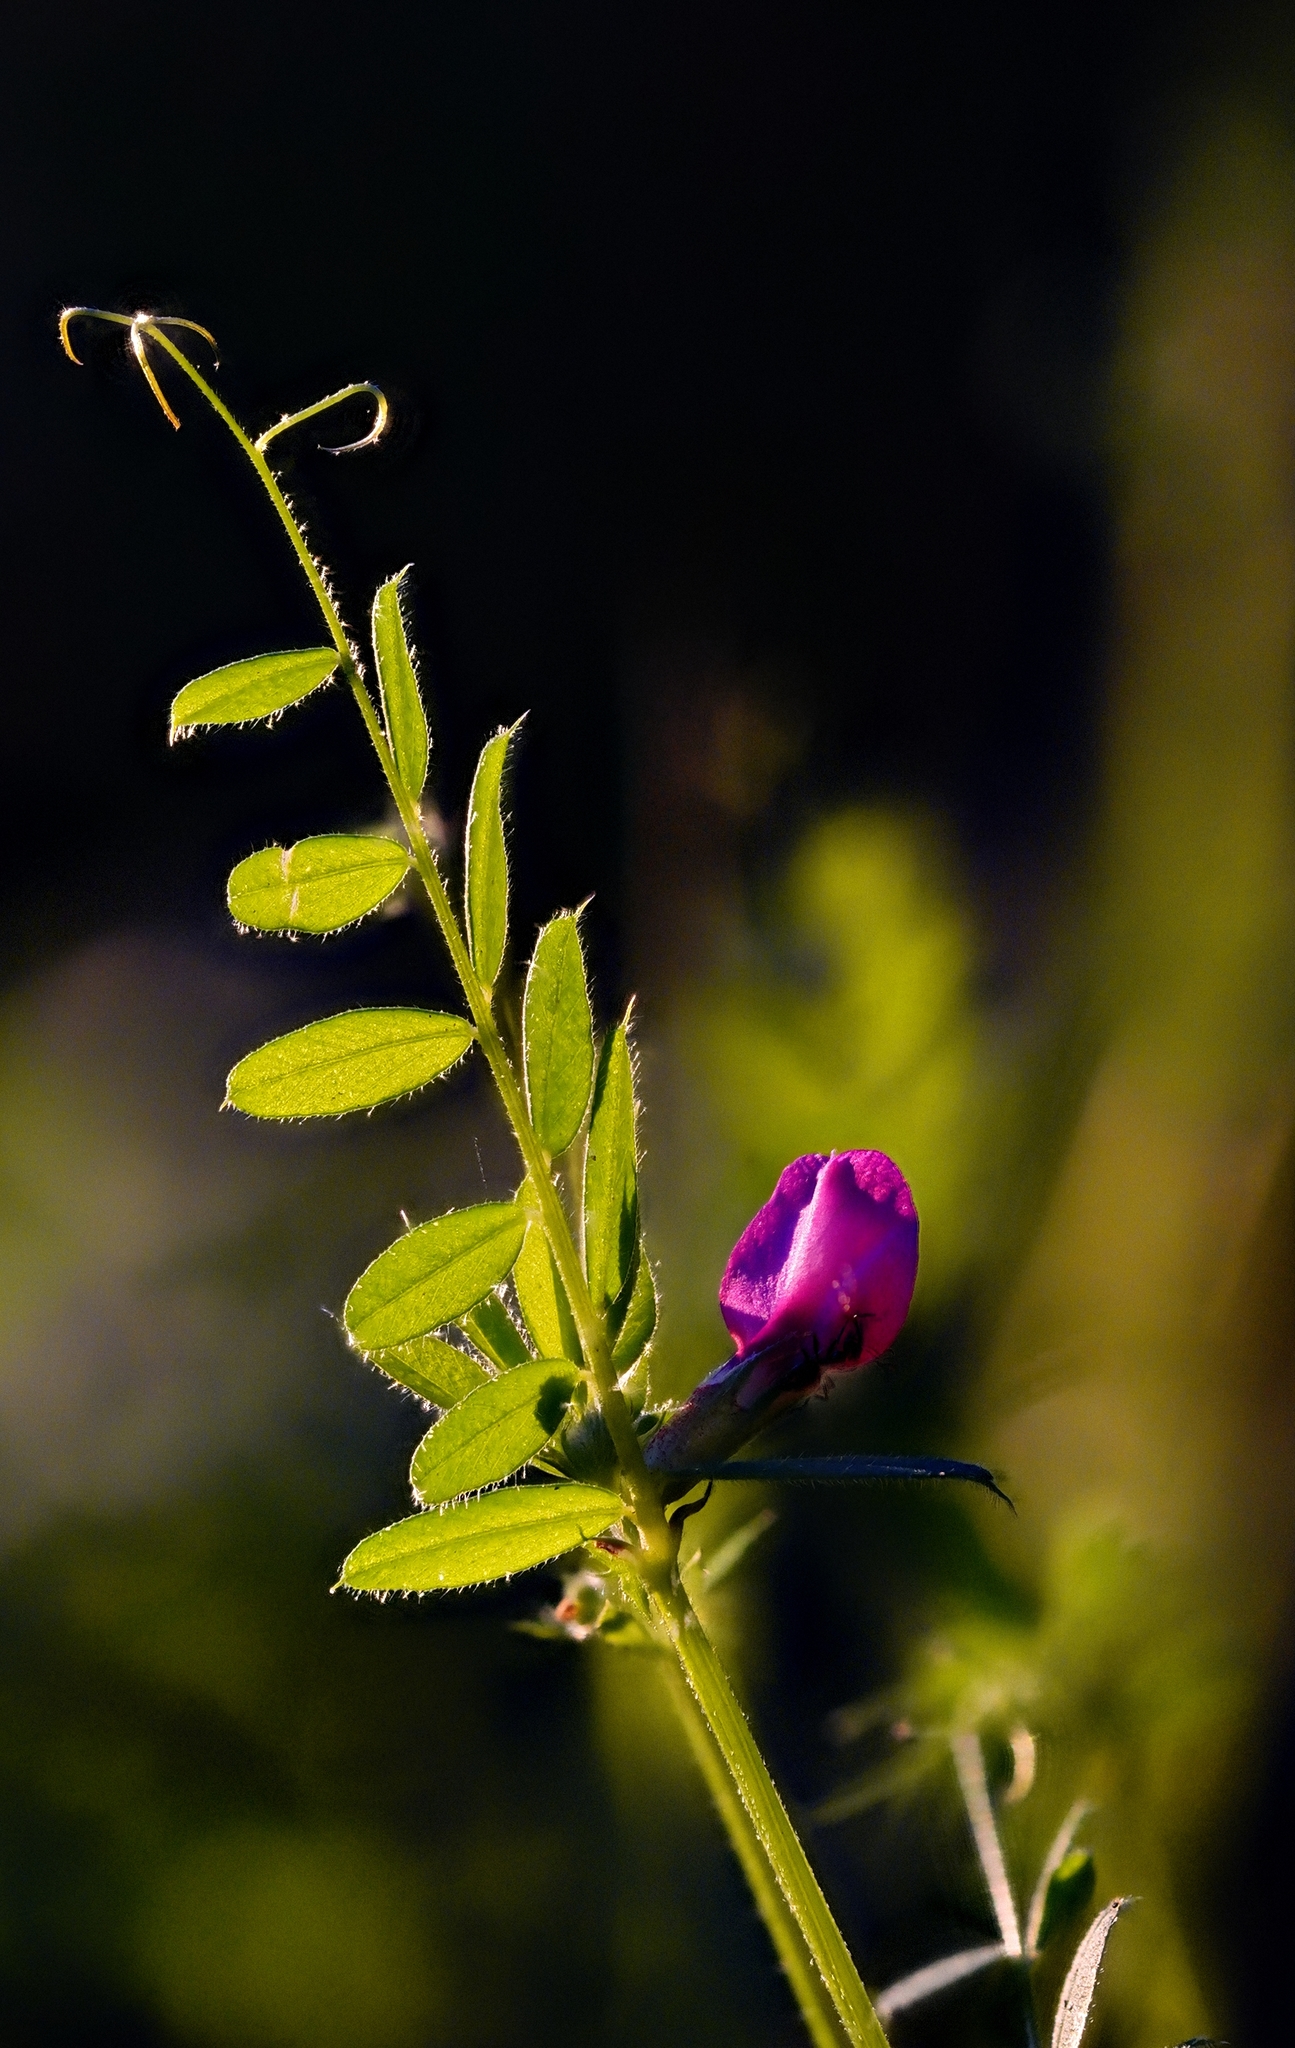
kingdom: Plantae
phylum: Tracheophyta
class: Magnoliopsida
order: Fabales
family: Fabaceae
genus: Vicia
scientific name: Vicia sativa
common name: Garden vetch
